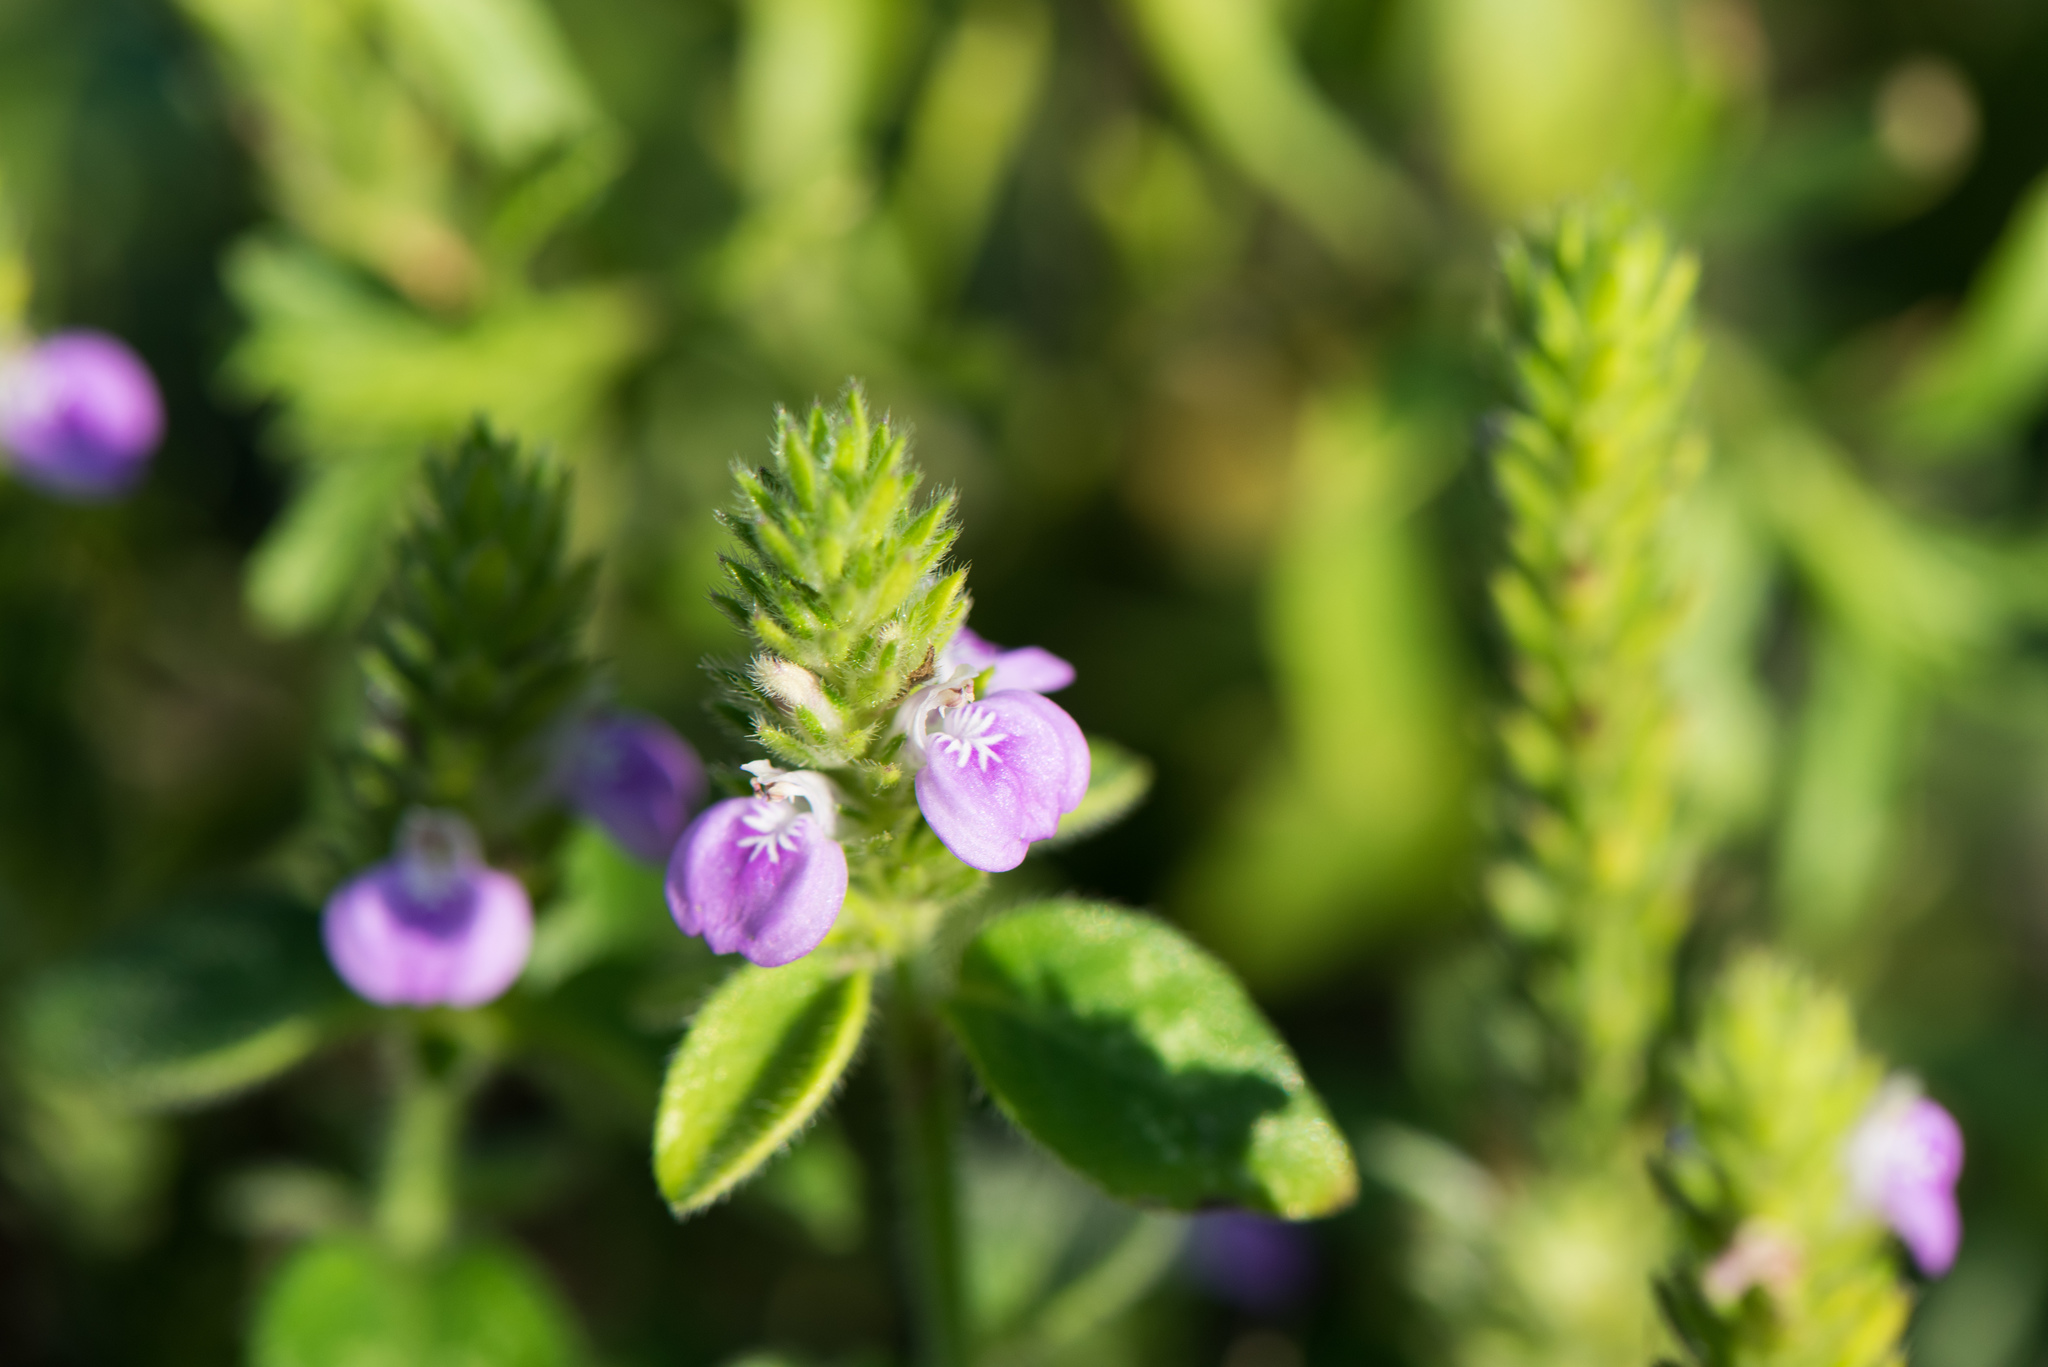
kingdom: Plantae
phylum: Tracheophyta
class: Magnoliopsida
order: Lamiales
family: Acanthaceae
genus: Rostellularia
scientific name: Rostellularia procumbens
